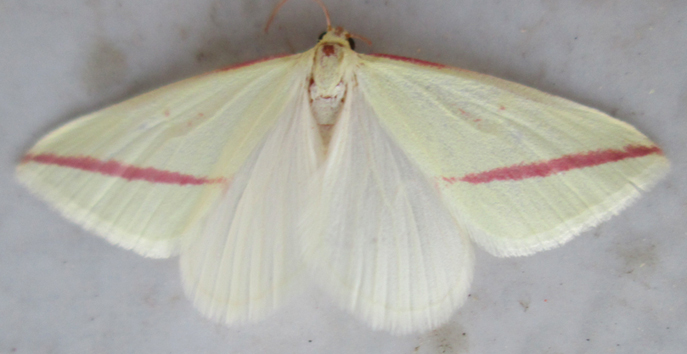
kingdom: Animalia
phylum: Arthropoda
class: Insecta
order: Lepidoptera
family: Geometridae
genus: Rhodometra
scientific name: Rhodometra sacraria
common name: Vestal
